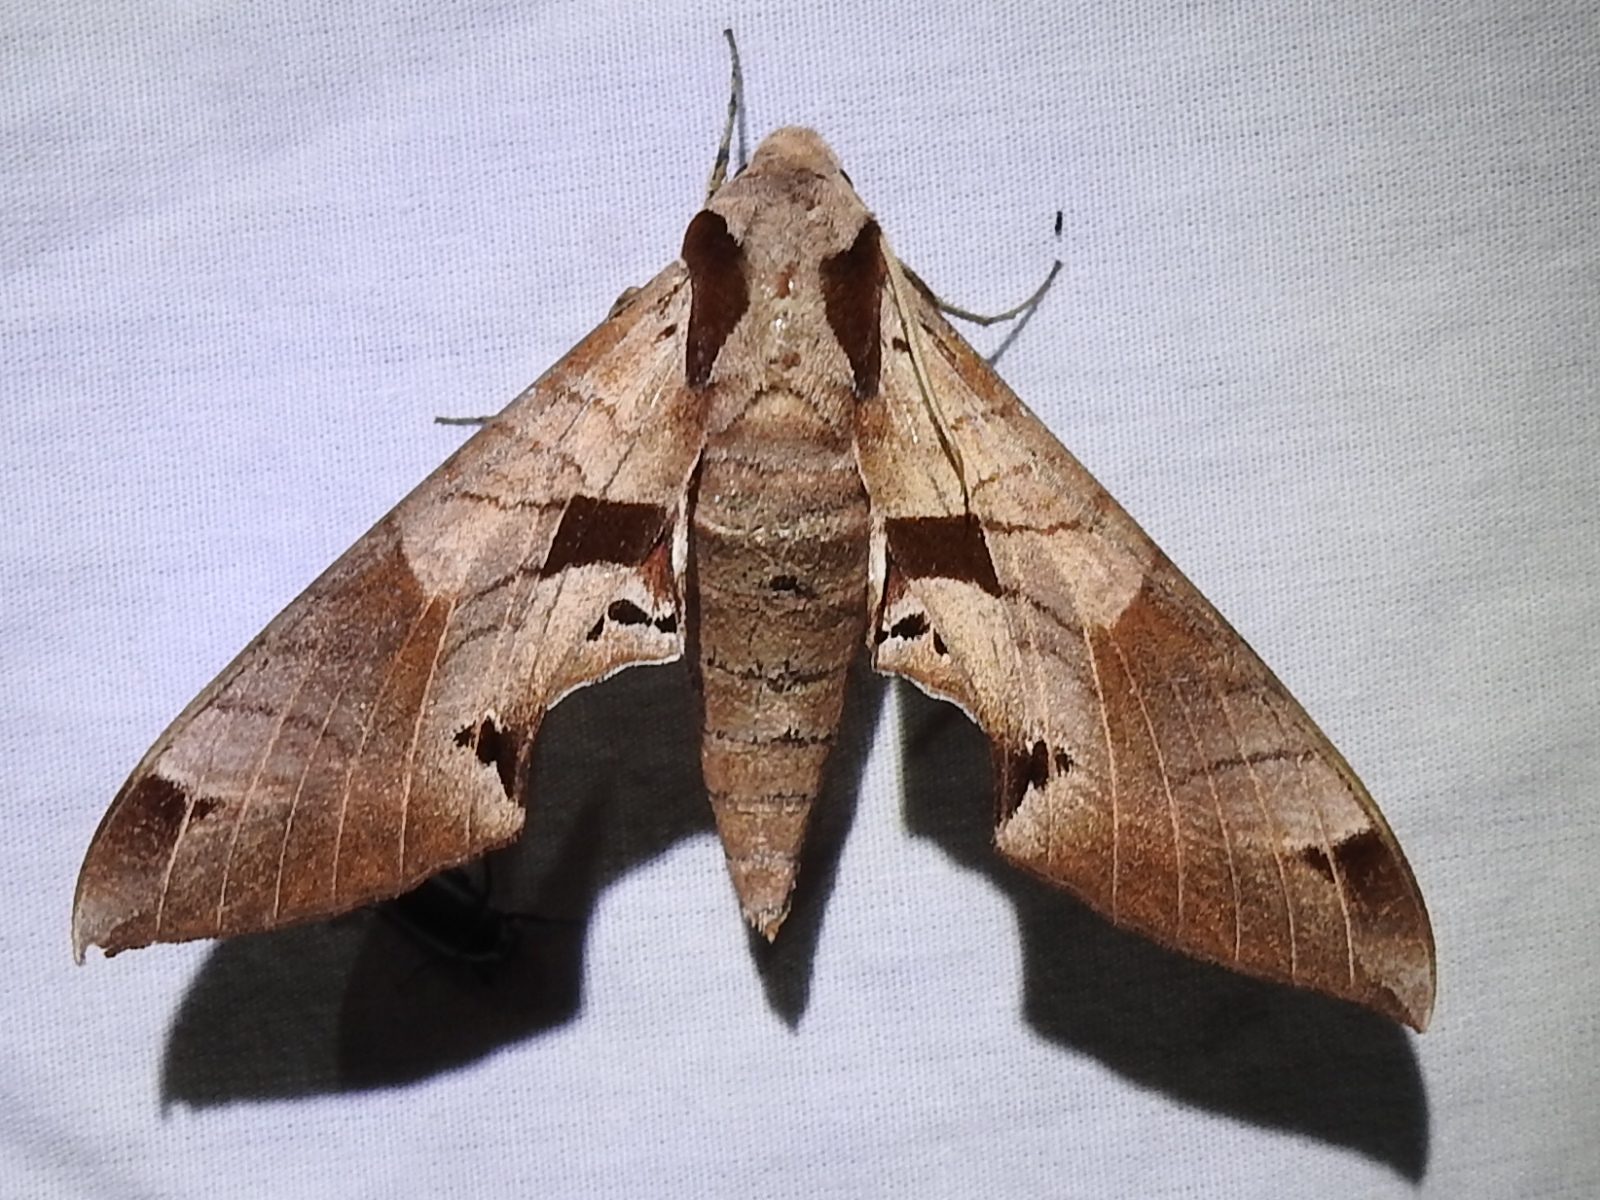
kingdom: Animalia
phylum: Arthropoda
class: Insecta
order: Lepidoptera
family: Sphingidae
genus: Eumorpha
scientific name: Eumorpha achemon
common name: Achemon sphinx
